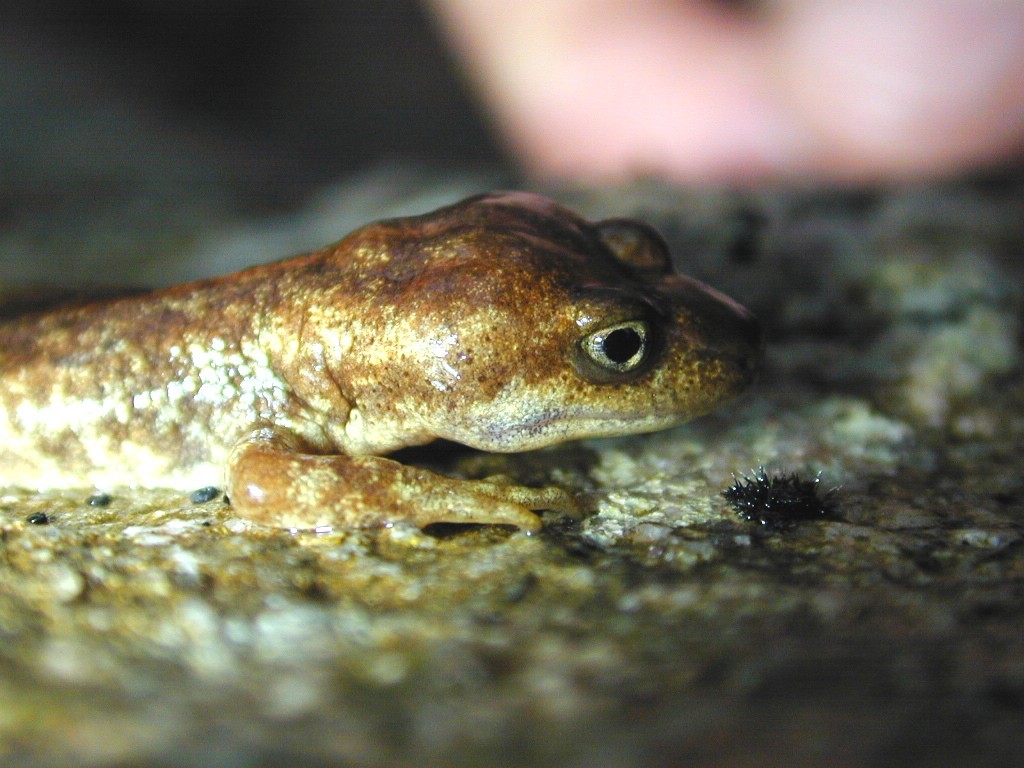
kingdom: Animalia
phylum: Chordata
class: Amphibia
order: Caudata
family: Salamandridae
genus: Euproctus
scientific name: Euproctus montanus
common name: Corsican brook salamander
